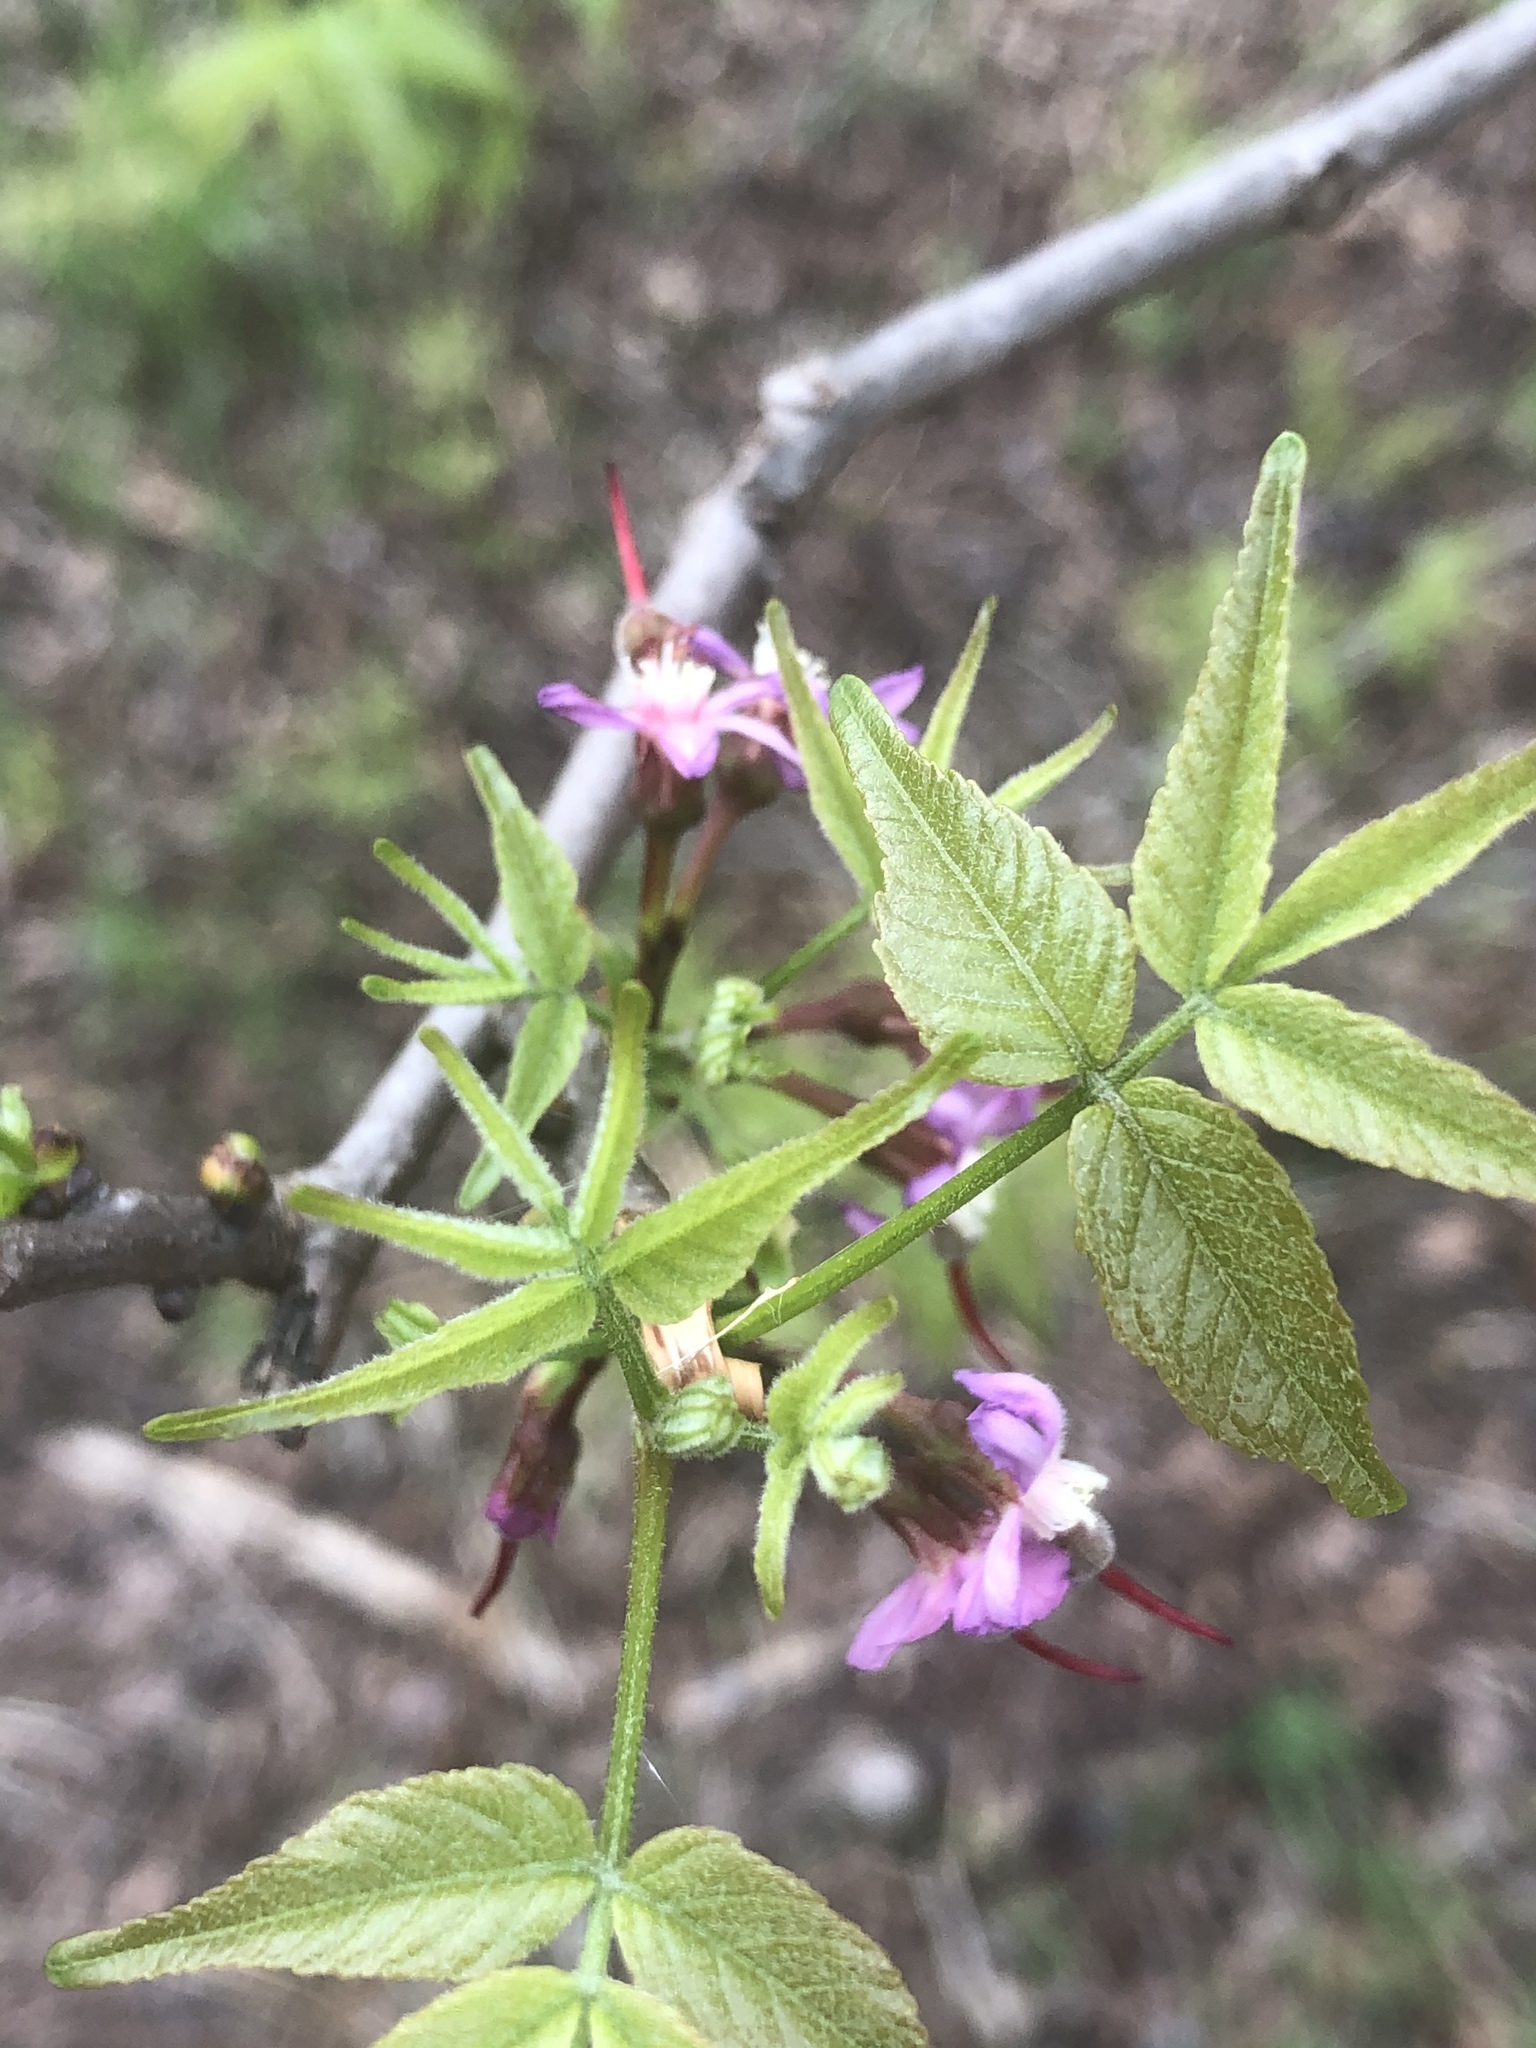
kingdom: Plantae
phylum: Tracheophyta
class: Magnoliopsida
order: Sapindales
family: Sapindaceae
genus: Ungnadia
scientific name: Ungnadia speciosa
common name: Texas-buckeye
